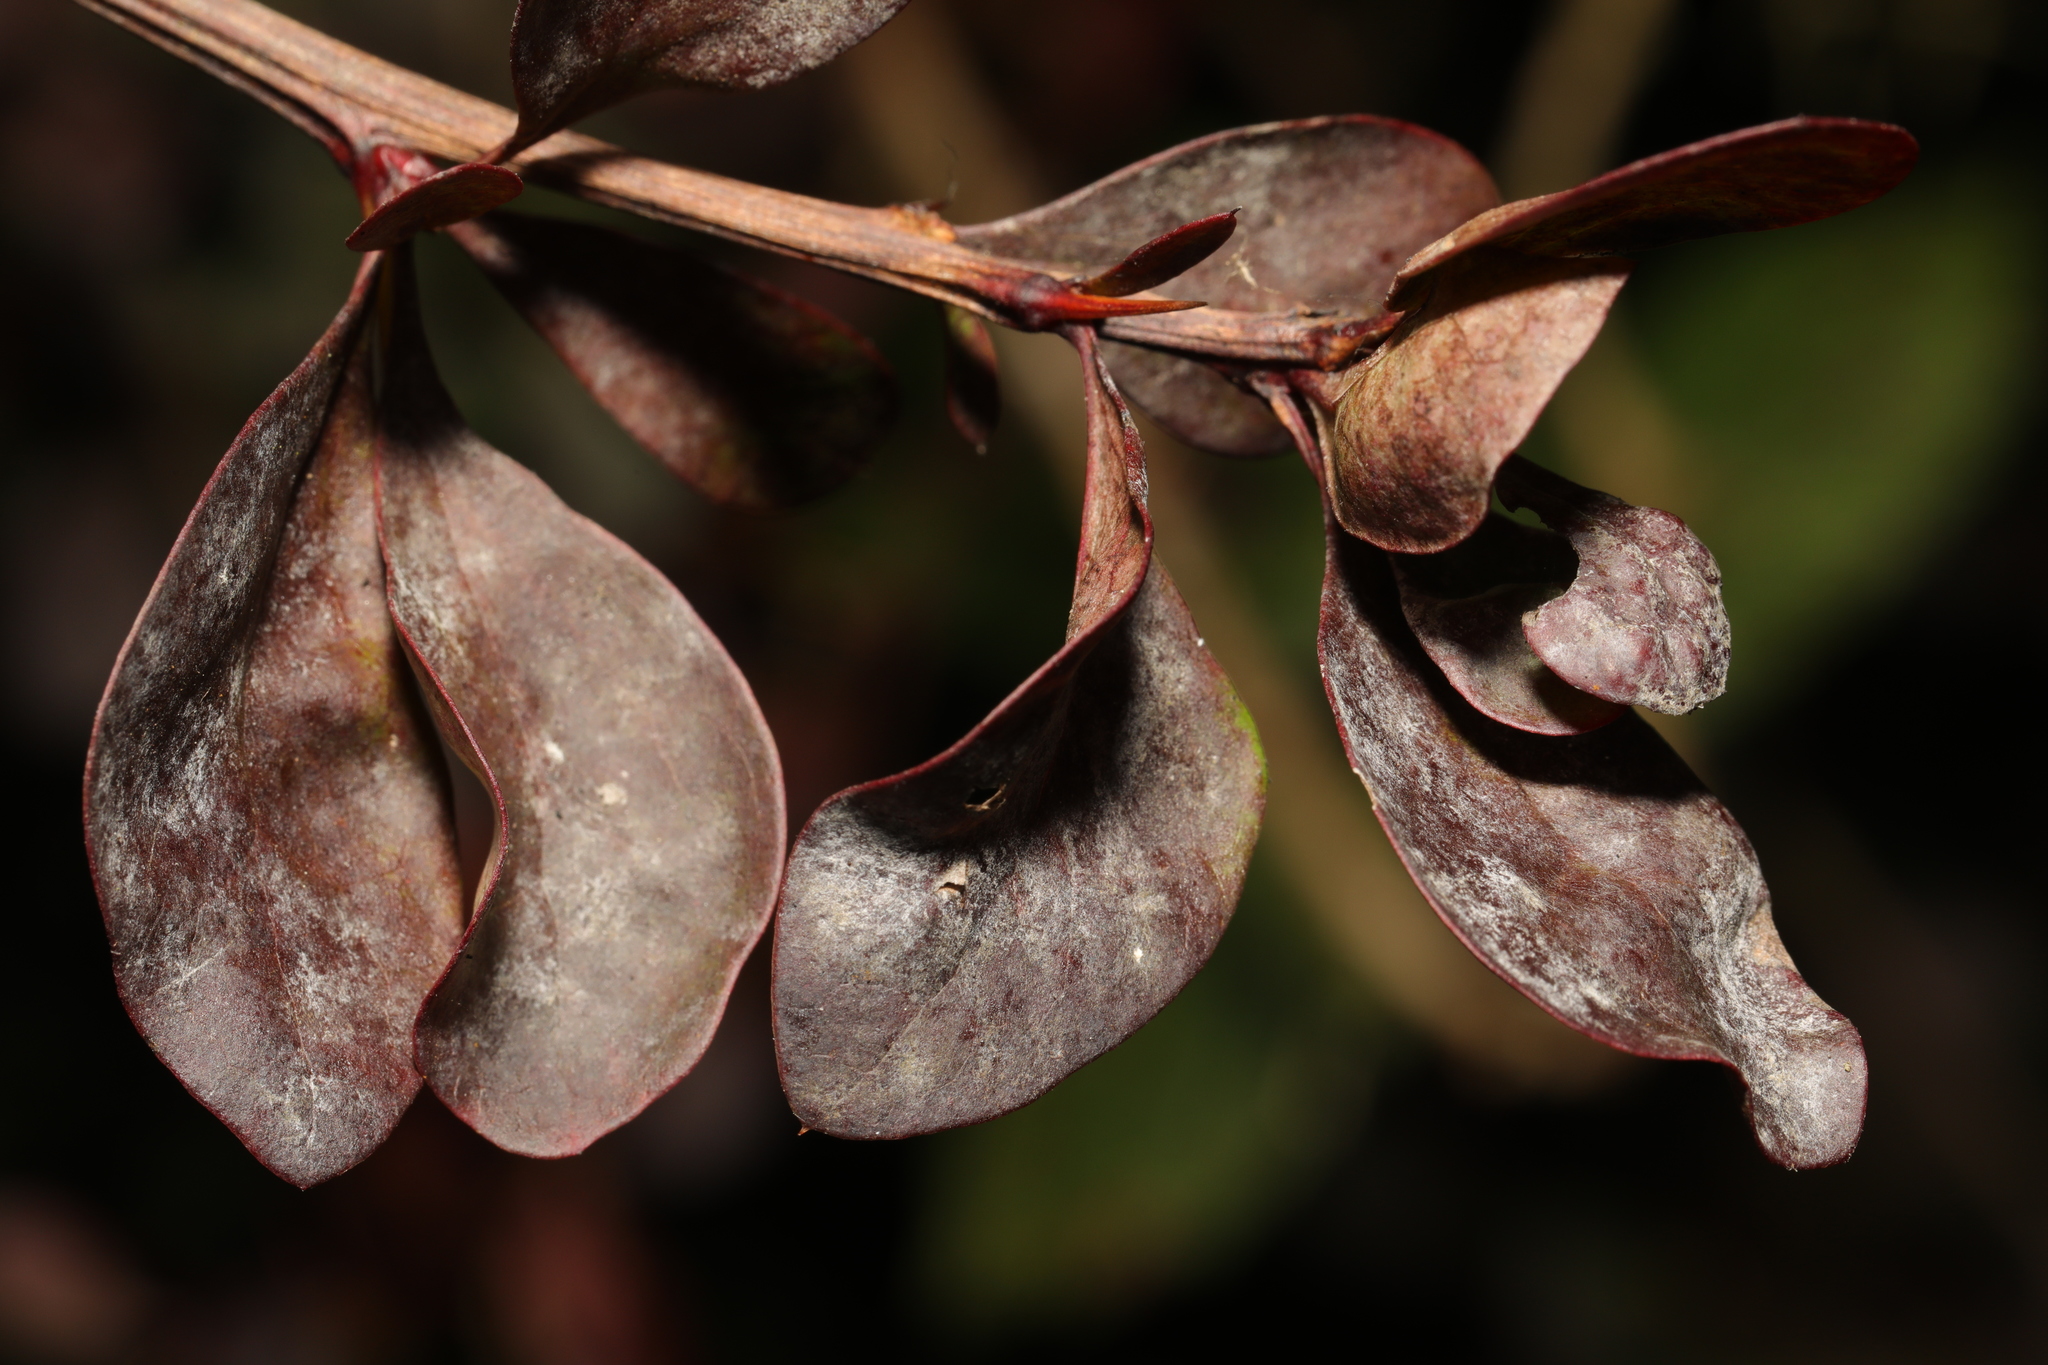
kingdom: Fungi
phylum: Ascomycota
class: Leotiomycetes
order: Helotiales
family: Erysiphaceae
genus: Erysiphe
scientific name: Erysiphe berberidis
